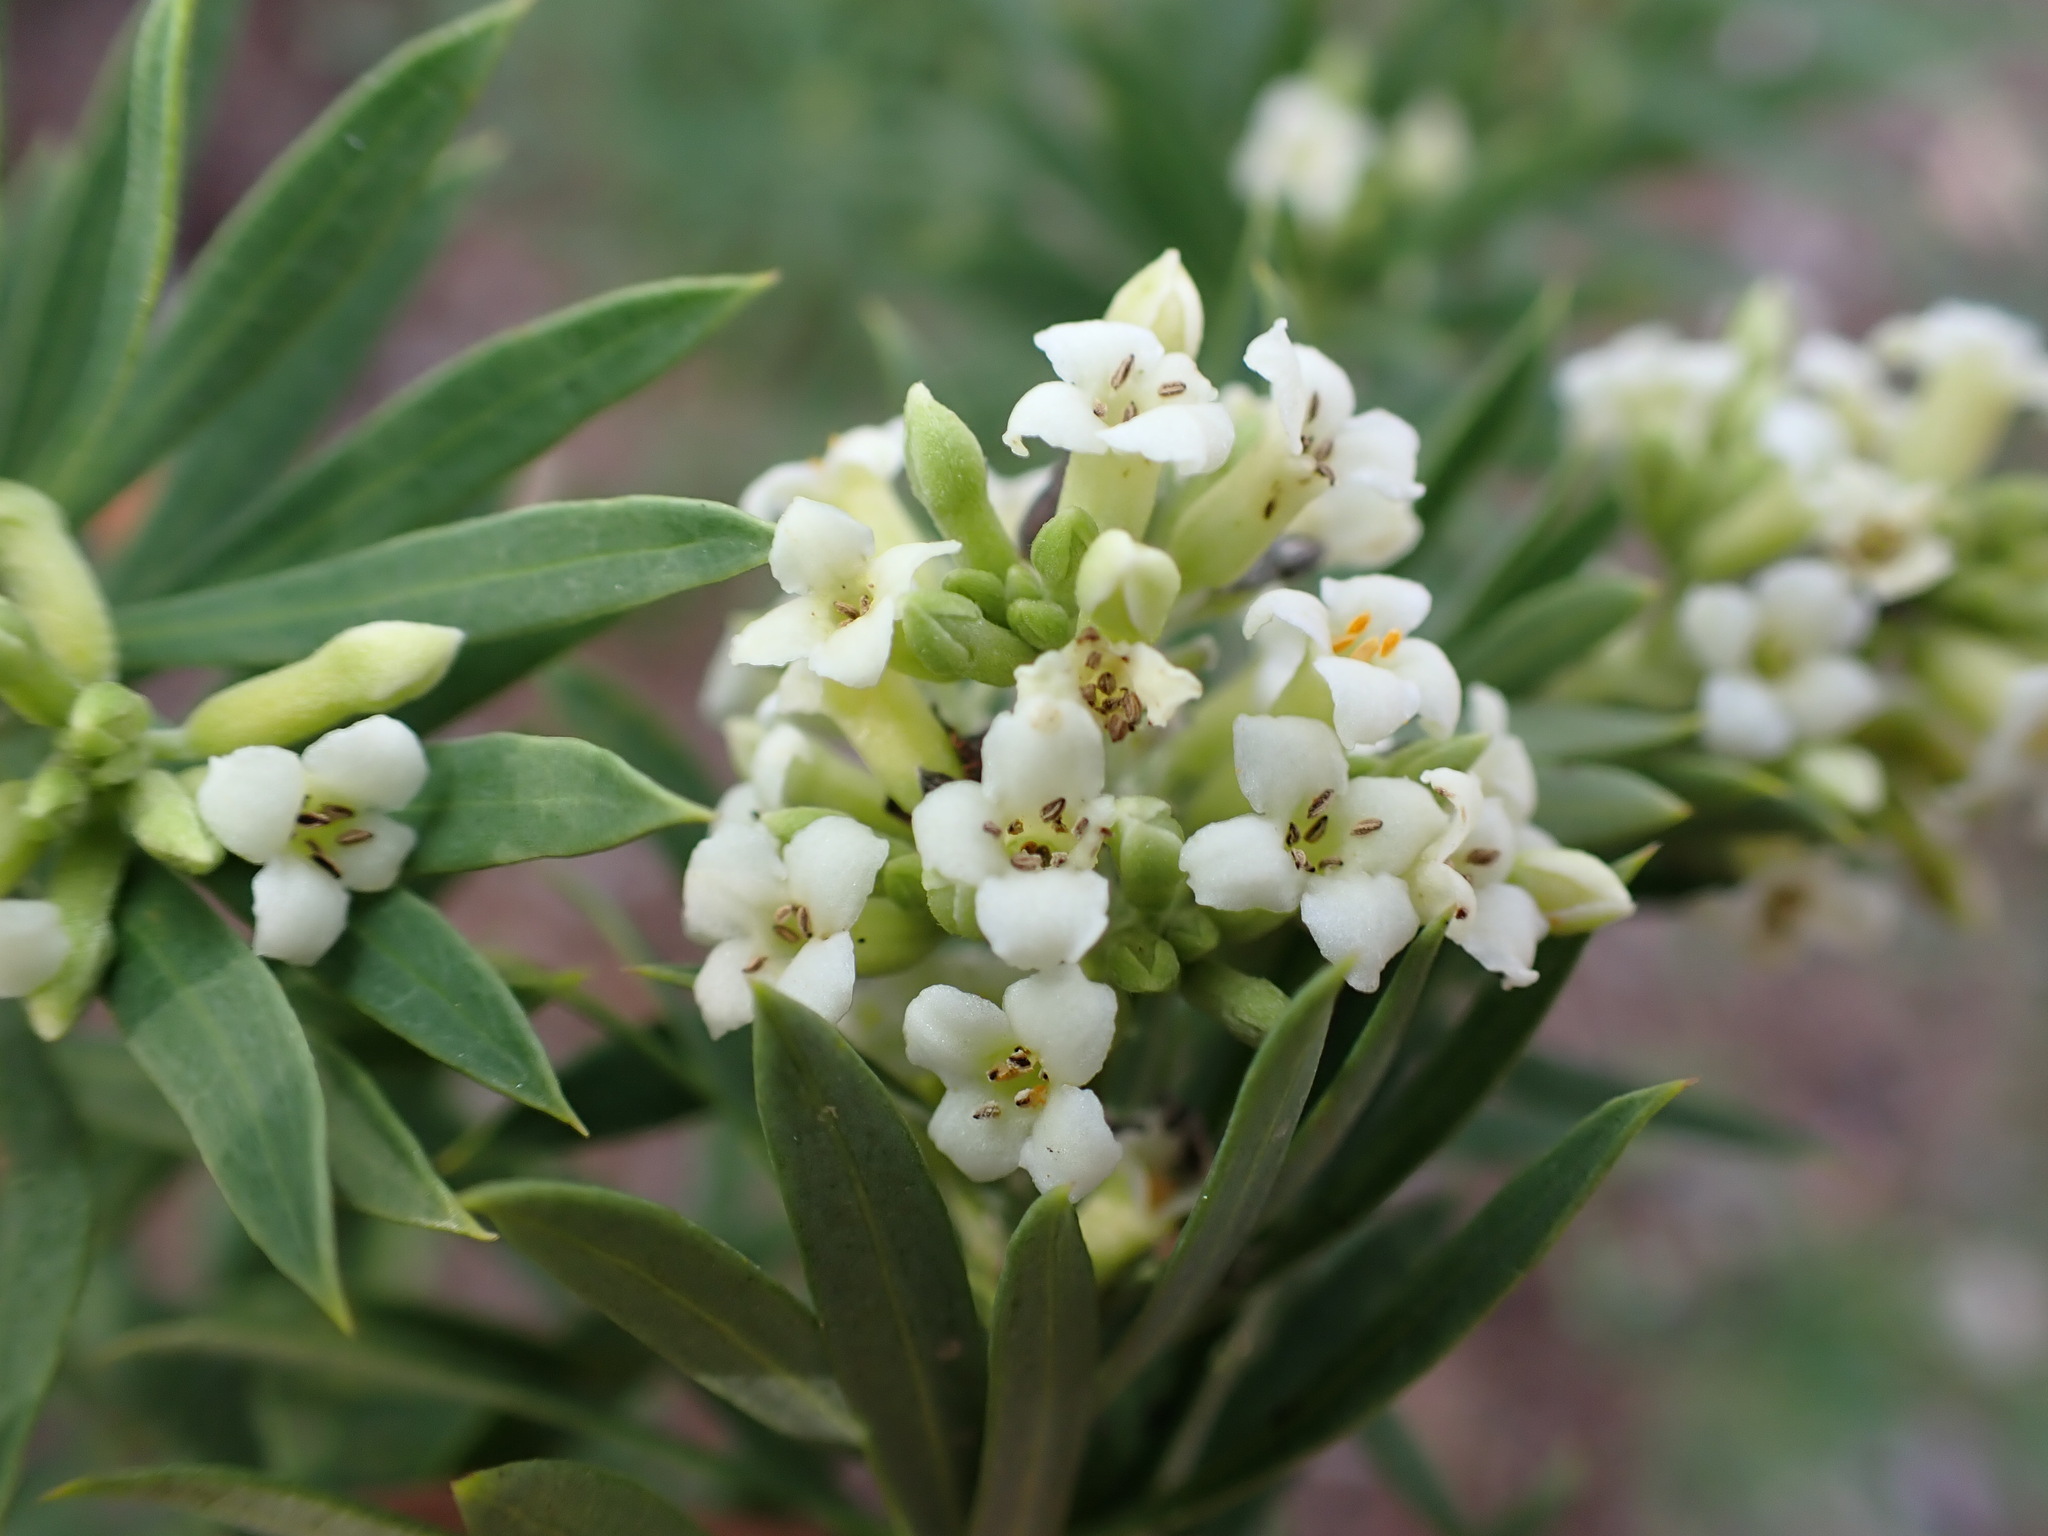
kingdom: Plantae
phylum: Tracheophyta
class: Magnoliopsida
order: Malvales
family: Thymelaeaceae
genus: Daphne
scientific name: Daphne gnidium
